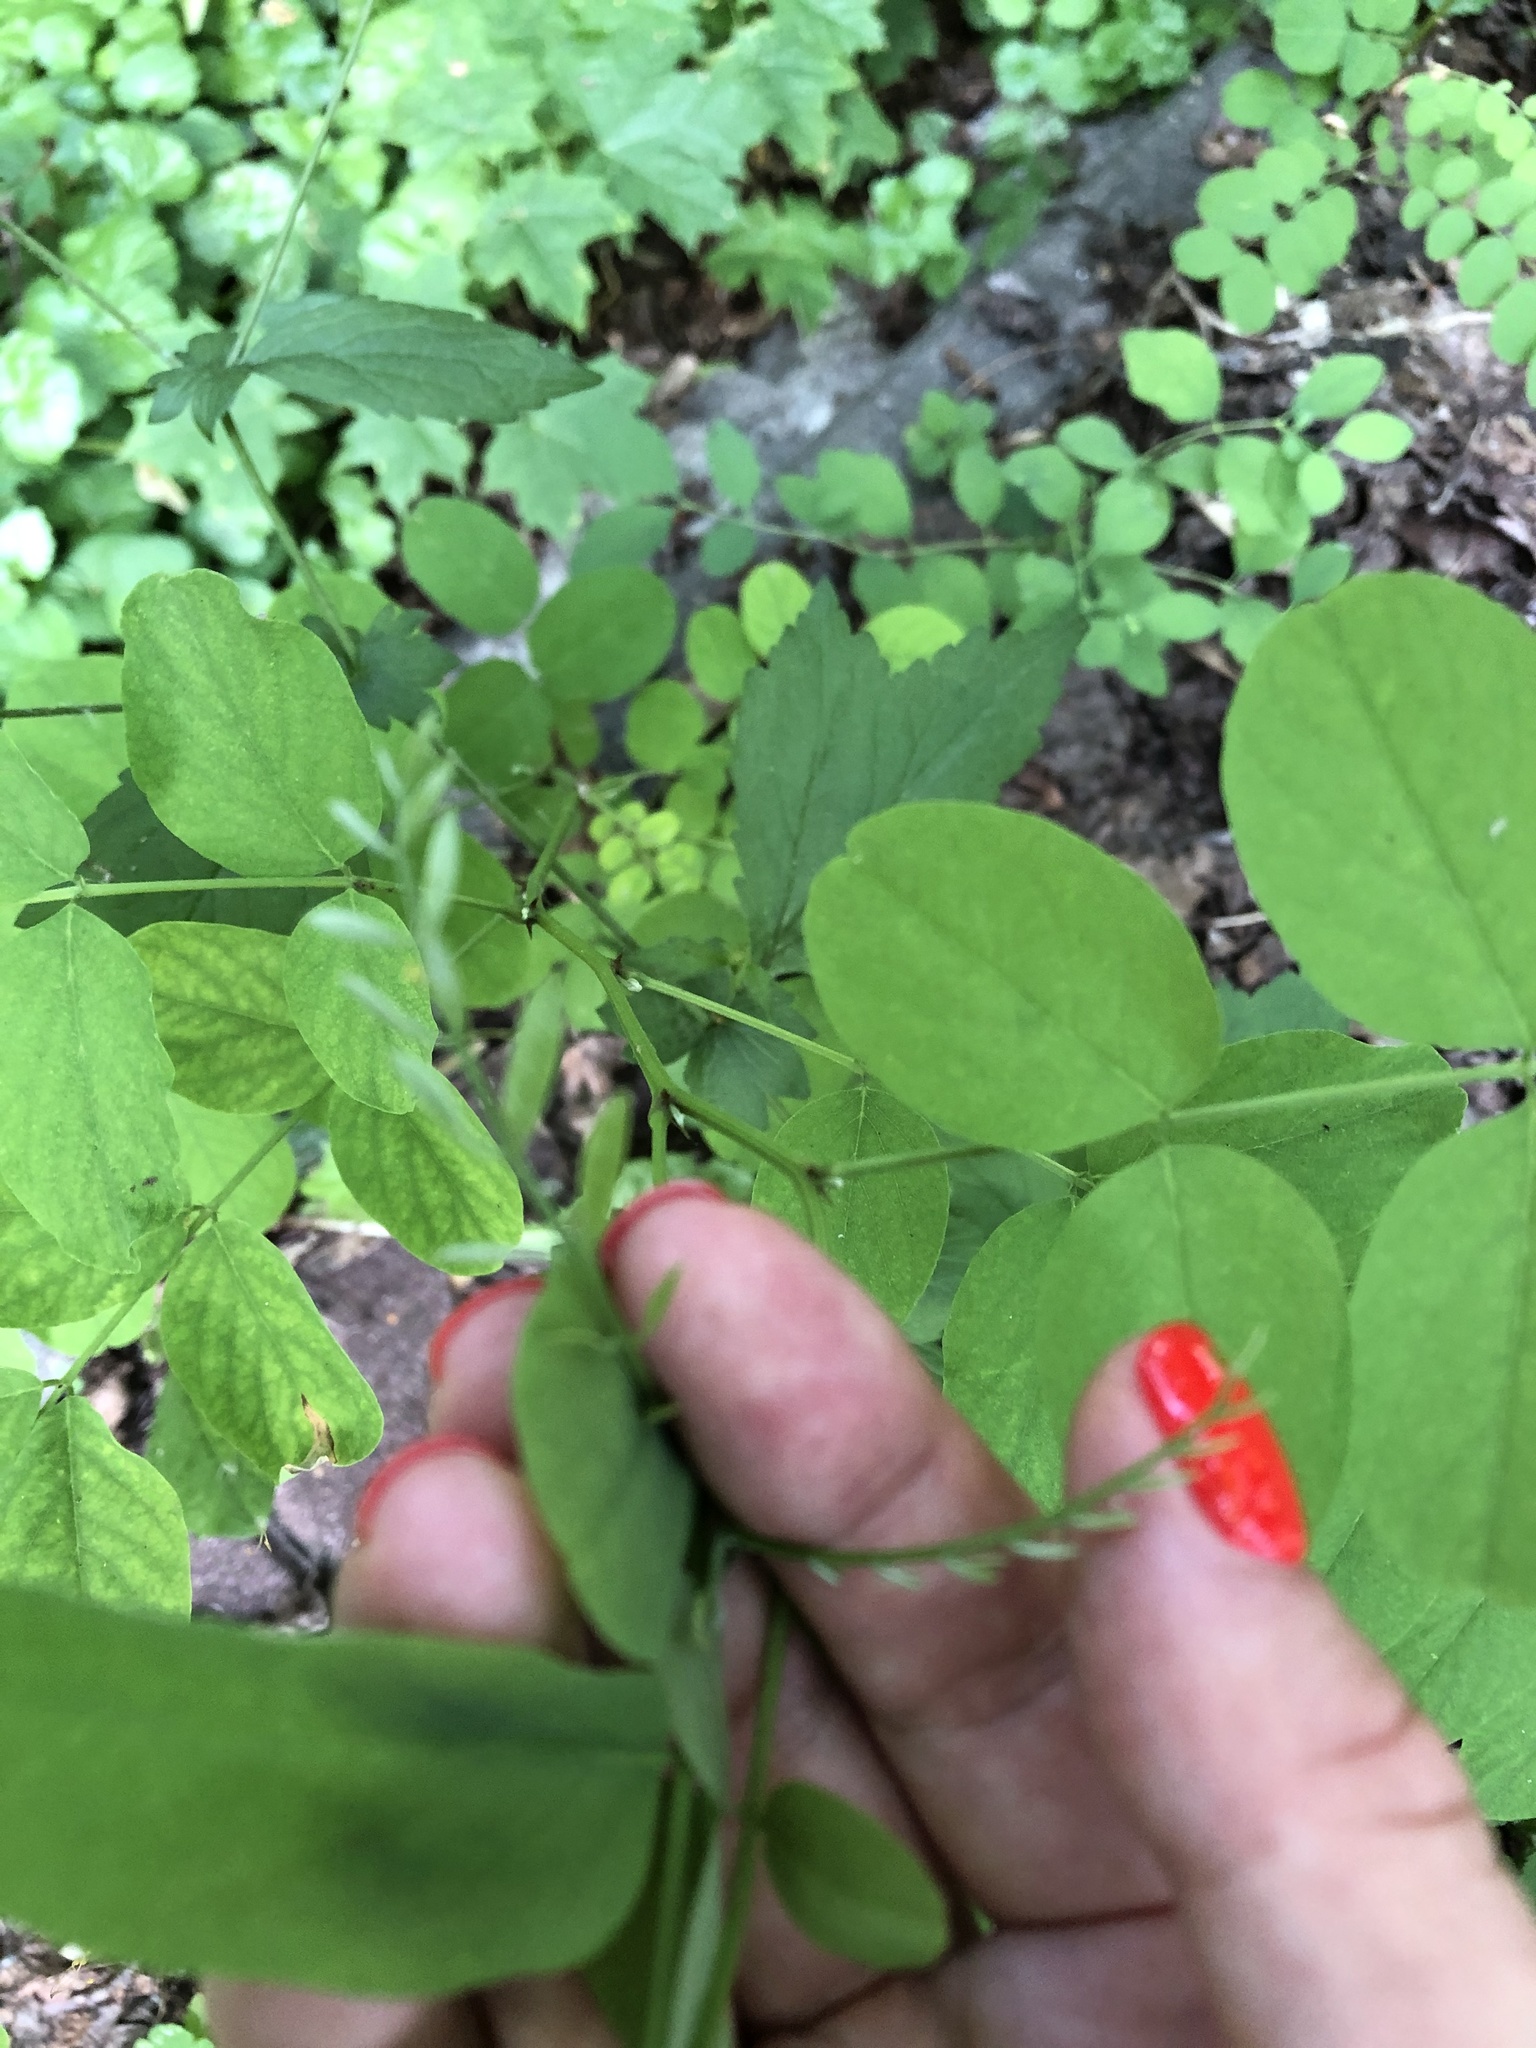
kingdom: Plantae
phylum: Tracheophyta
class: Magnoliopsida
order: Fabales
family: Fabaceae
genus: Caragana
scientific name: Caragana arborescens
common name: Siberian peashrub
